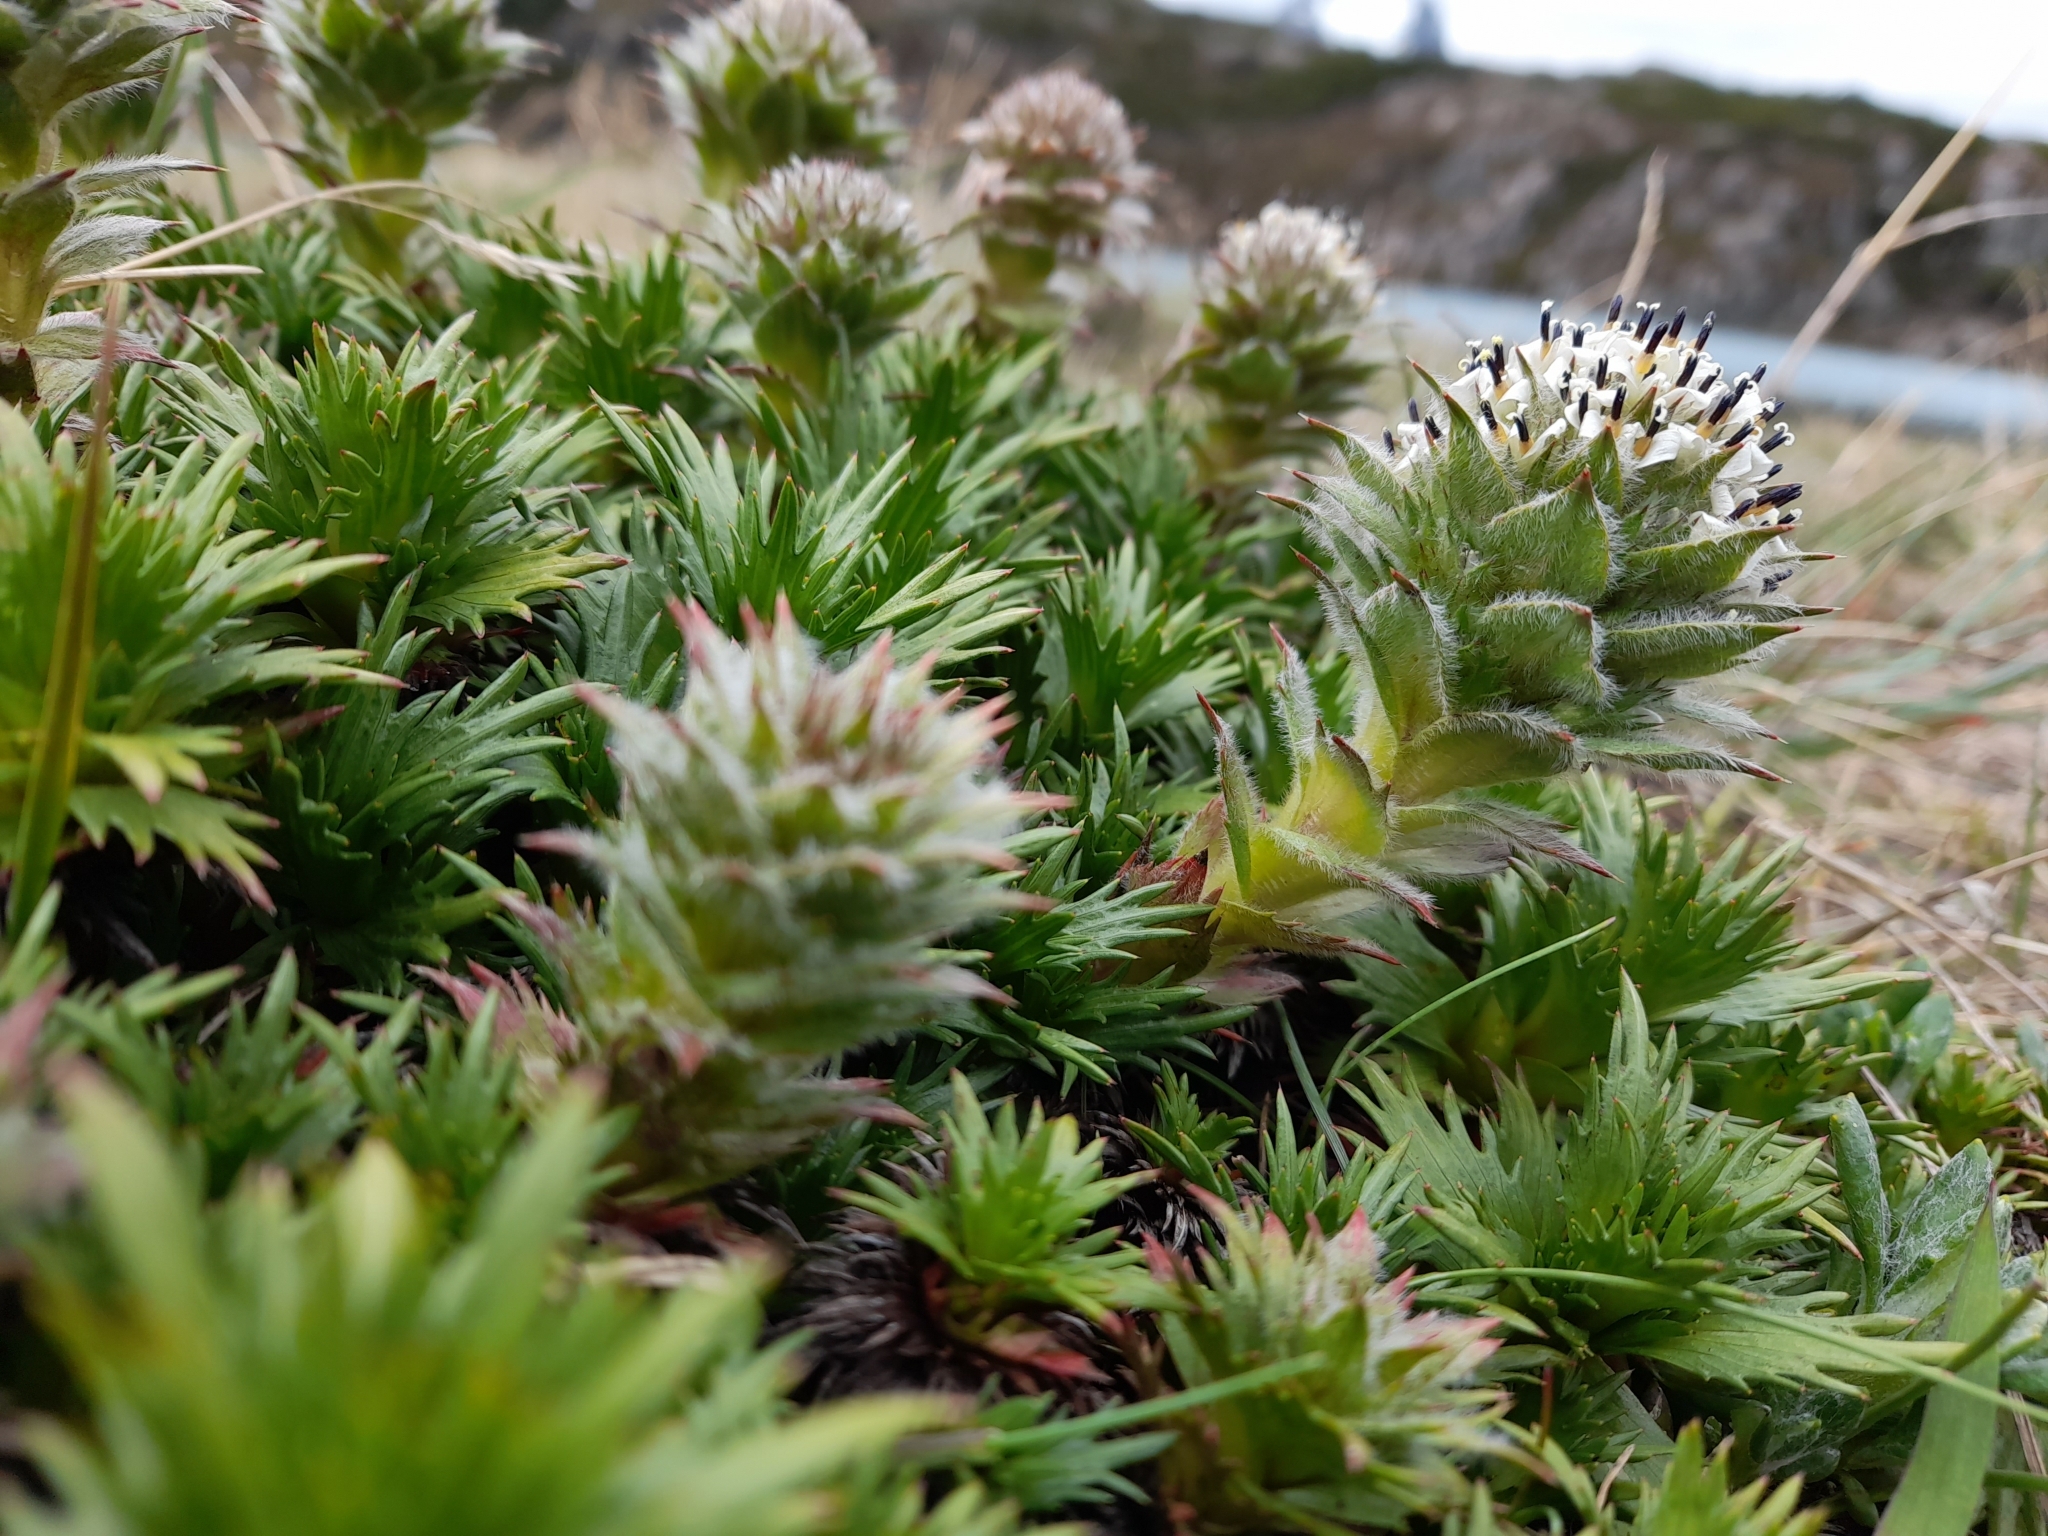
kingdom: Plantae
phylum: Tracheophyta
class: Magnoliopsida
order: Asterales
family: Asteraceae
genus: Nassauvia
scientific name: Nassauvia magellanica
